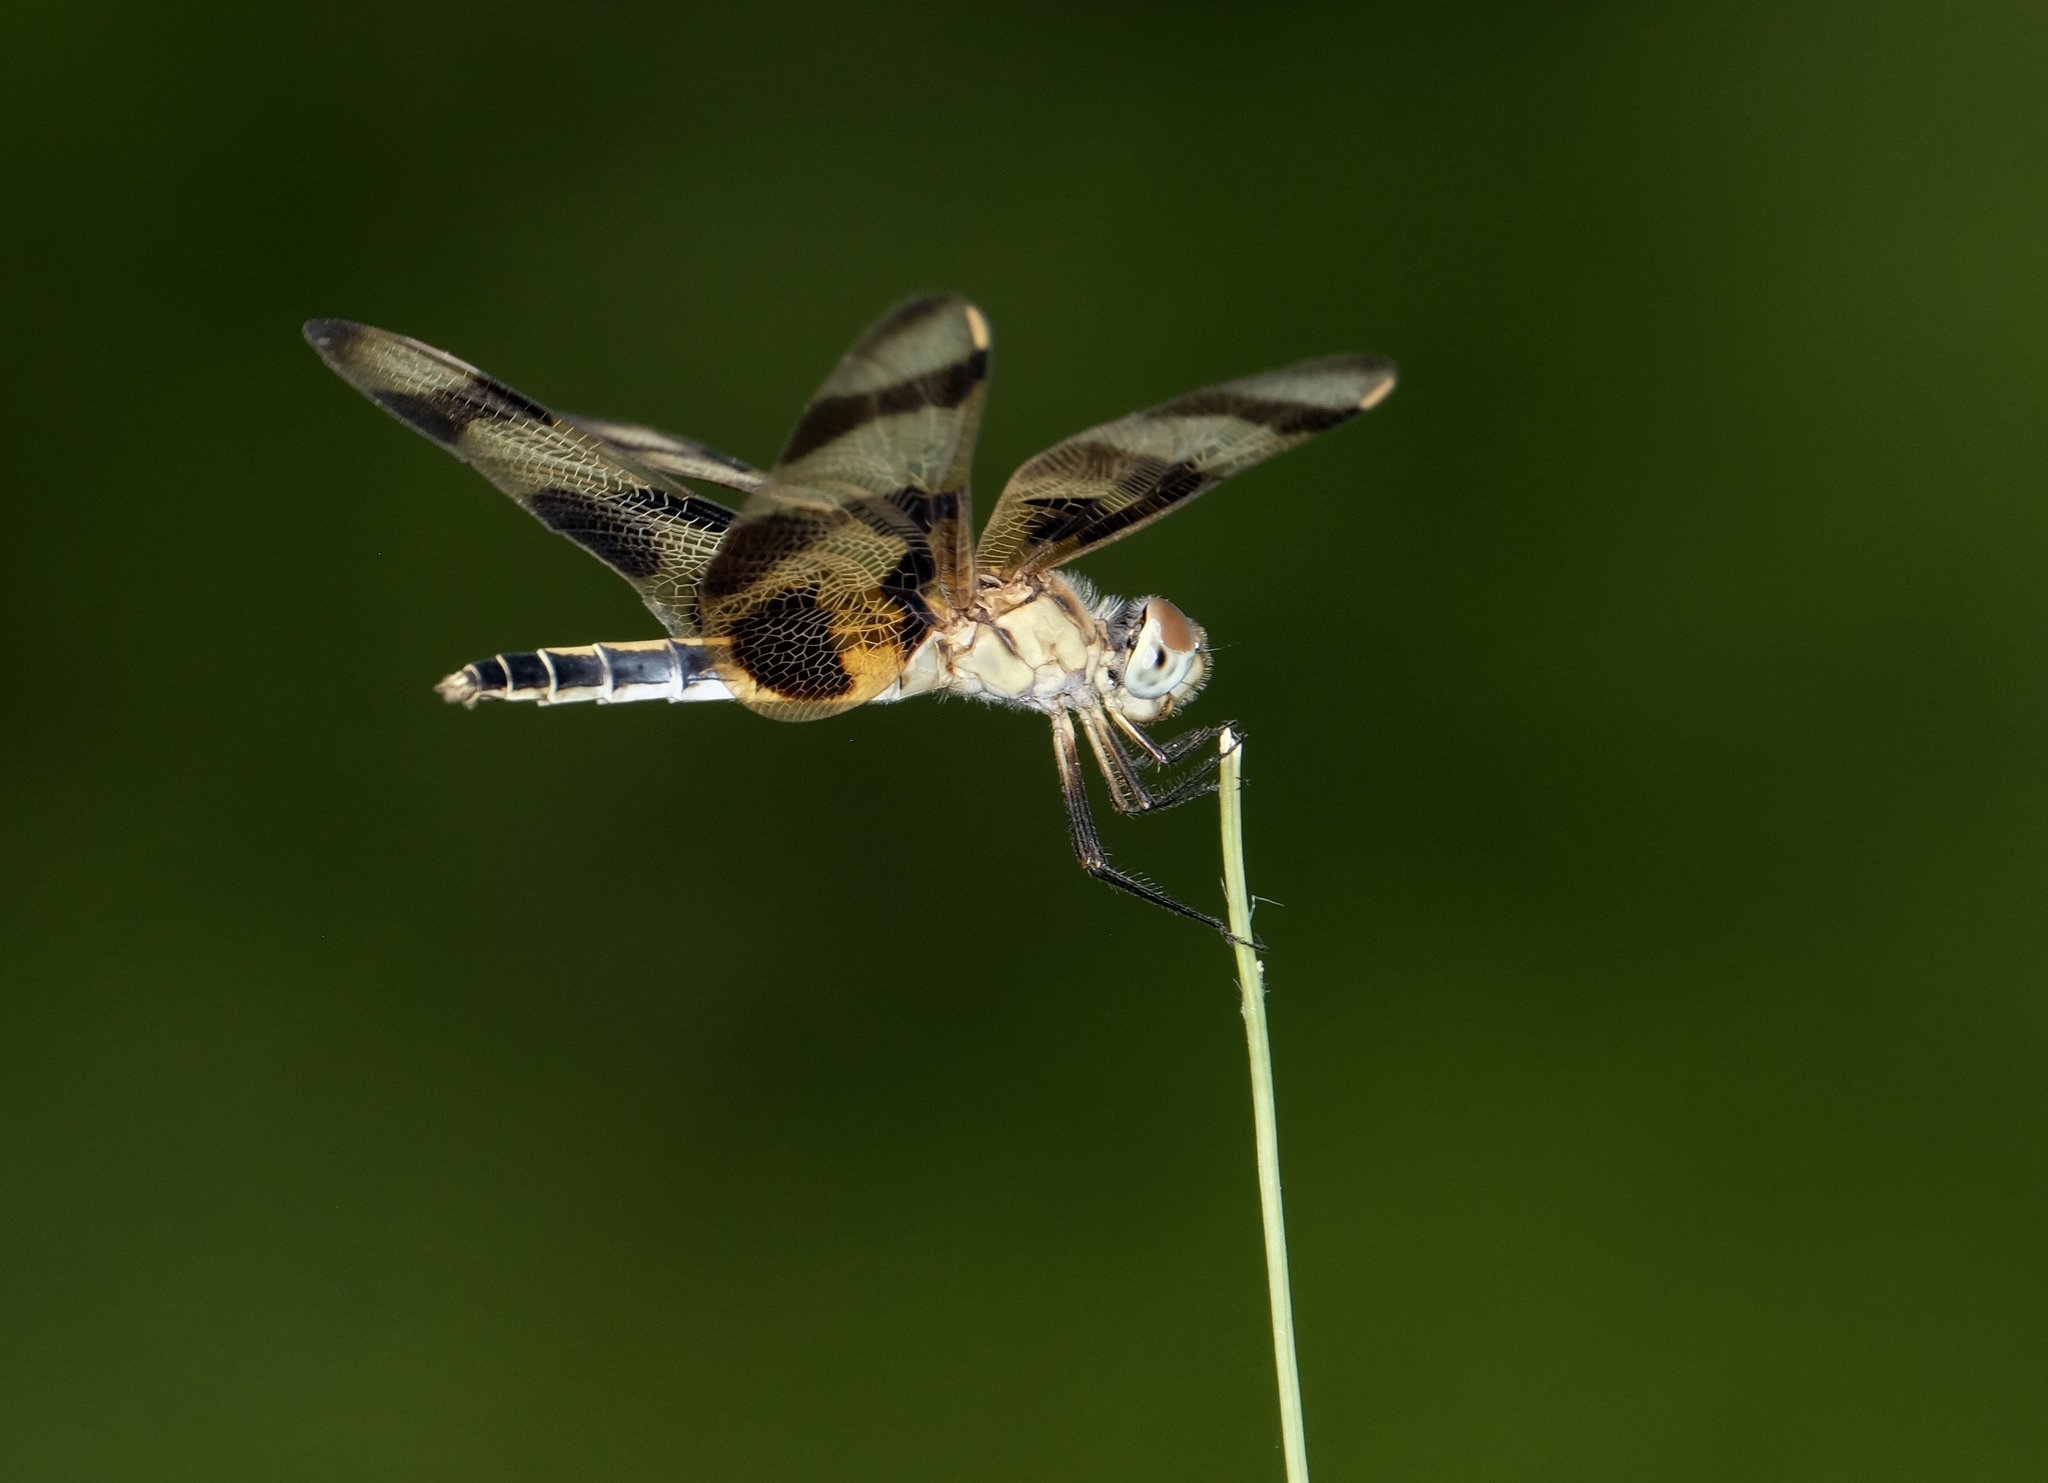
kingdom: Animalia
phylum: Arthropoda
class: Insecta
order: Odonata
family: Libellulidae
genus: Celithemis
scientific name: Celithemis eponina
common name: Halloween pennant
